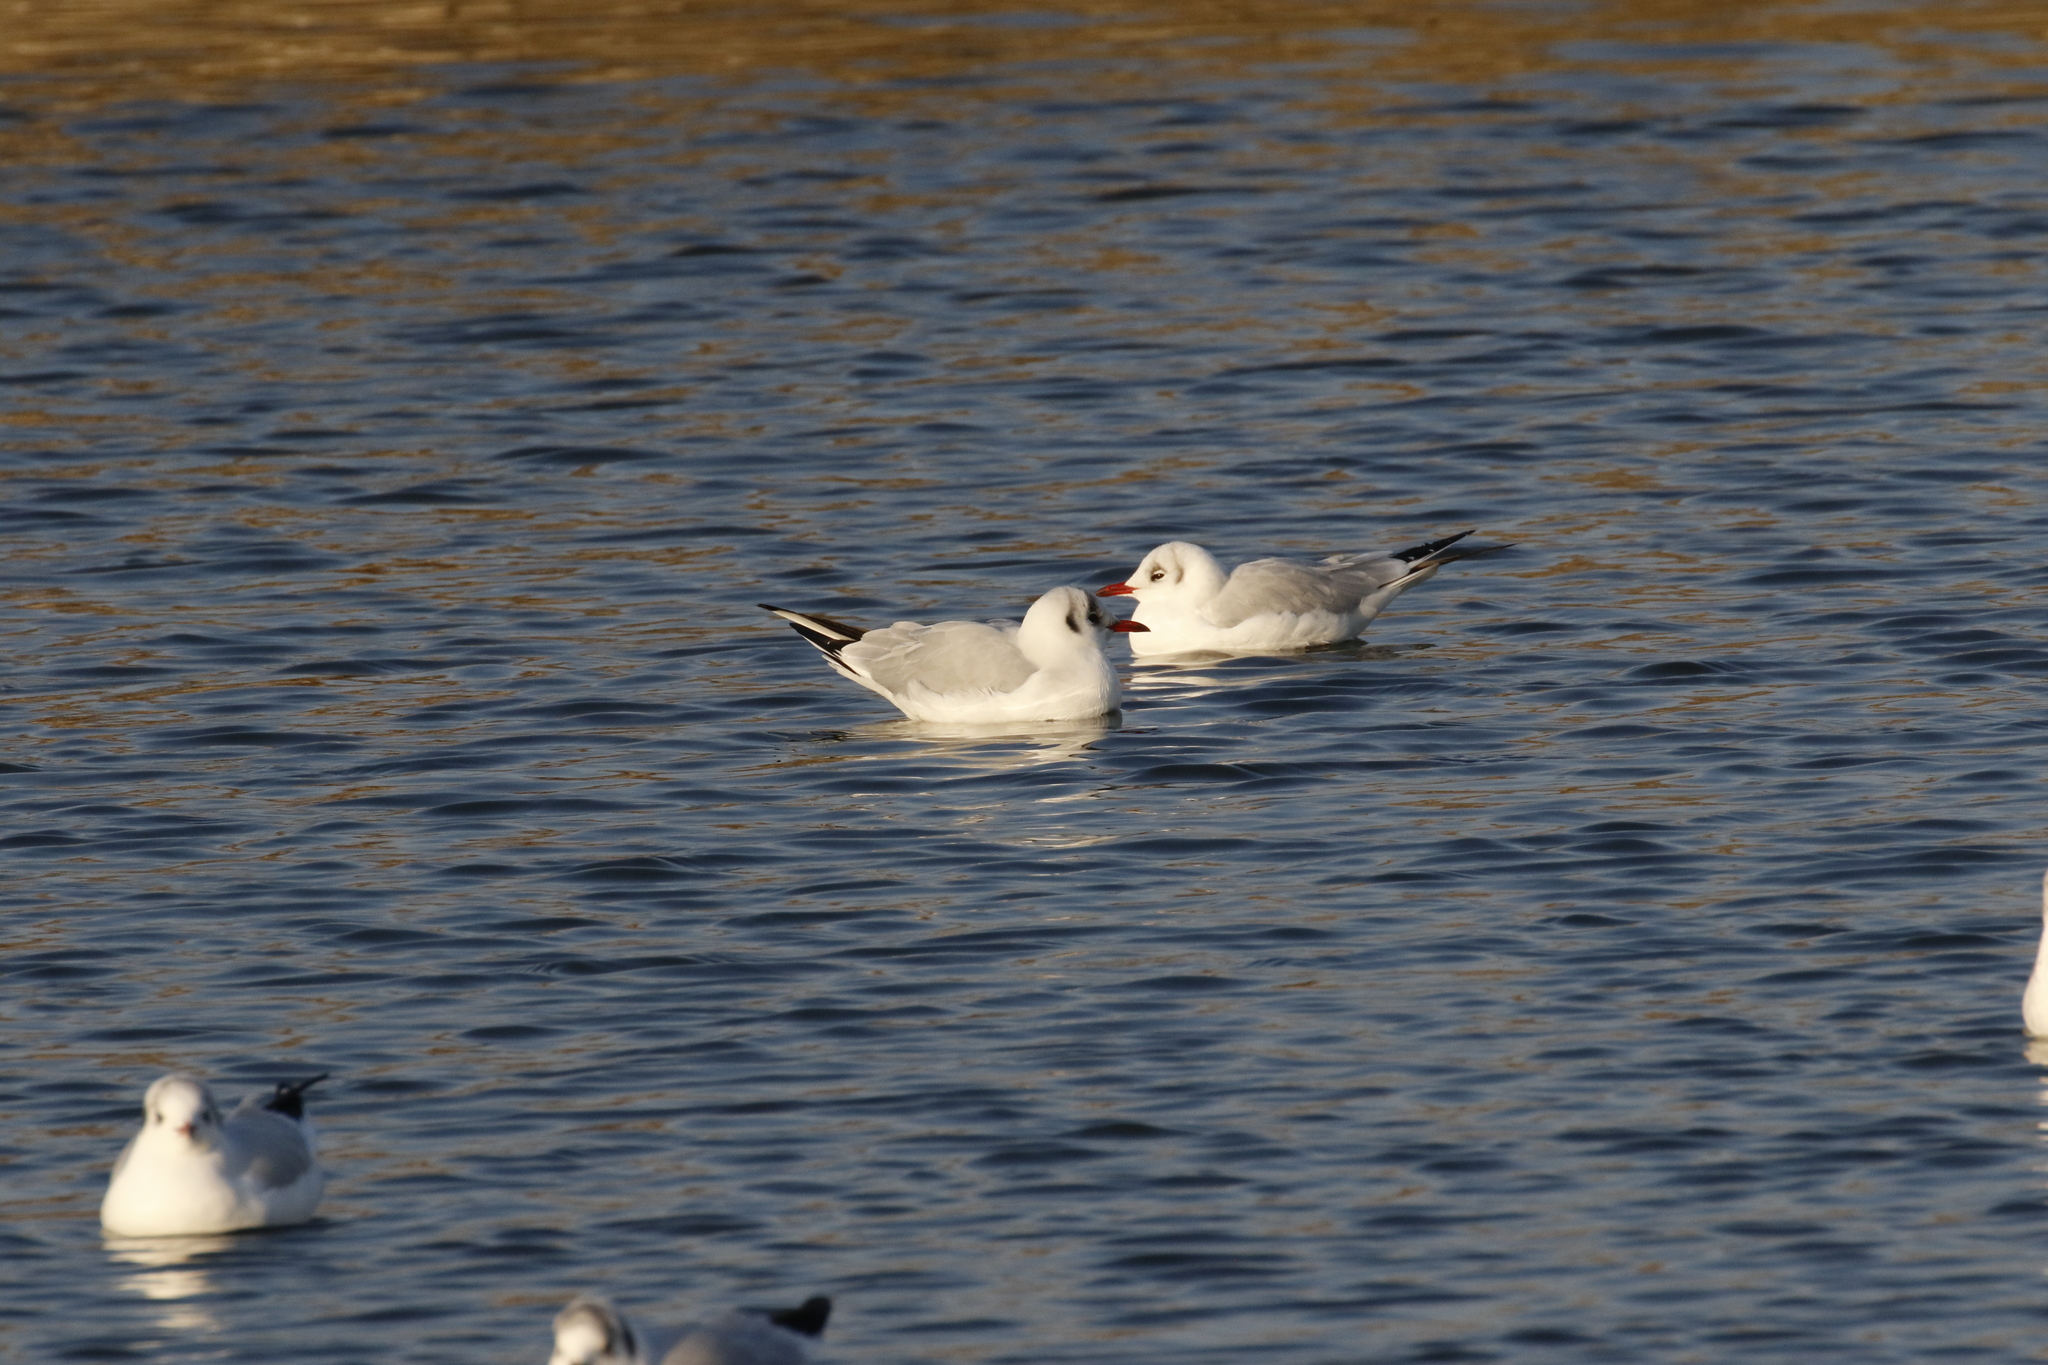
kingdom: Animalia
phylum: Chordata
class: Aves
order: Charadriiformes
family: Laridae
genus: Chroicocephalus
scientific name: Chroicocephalus ridibundus
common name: Black-headed gull
